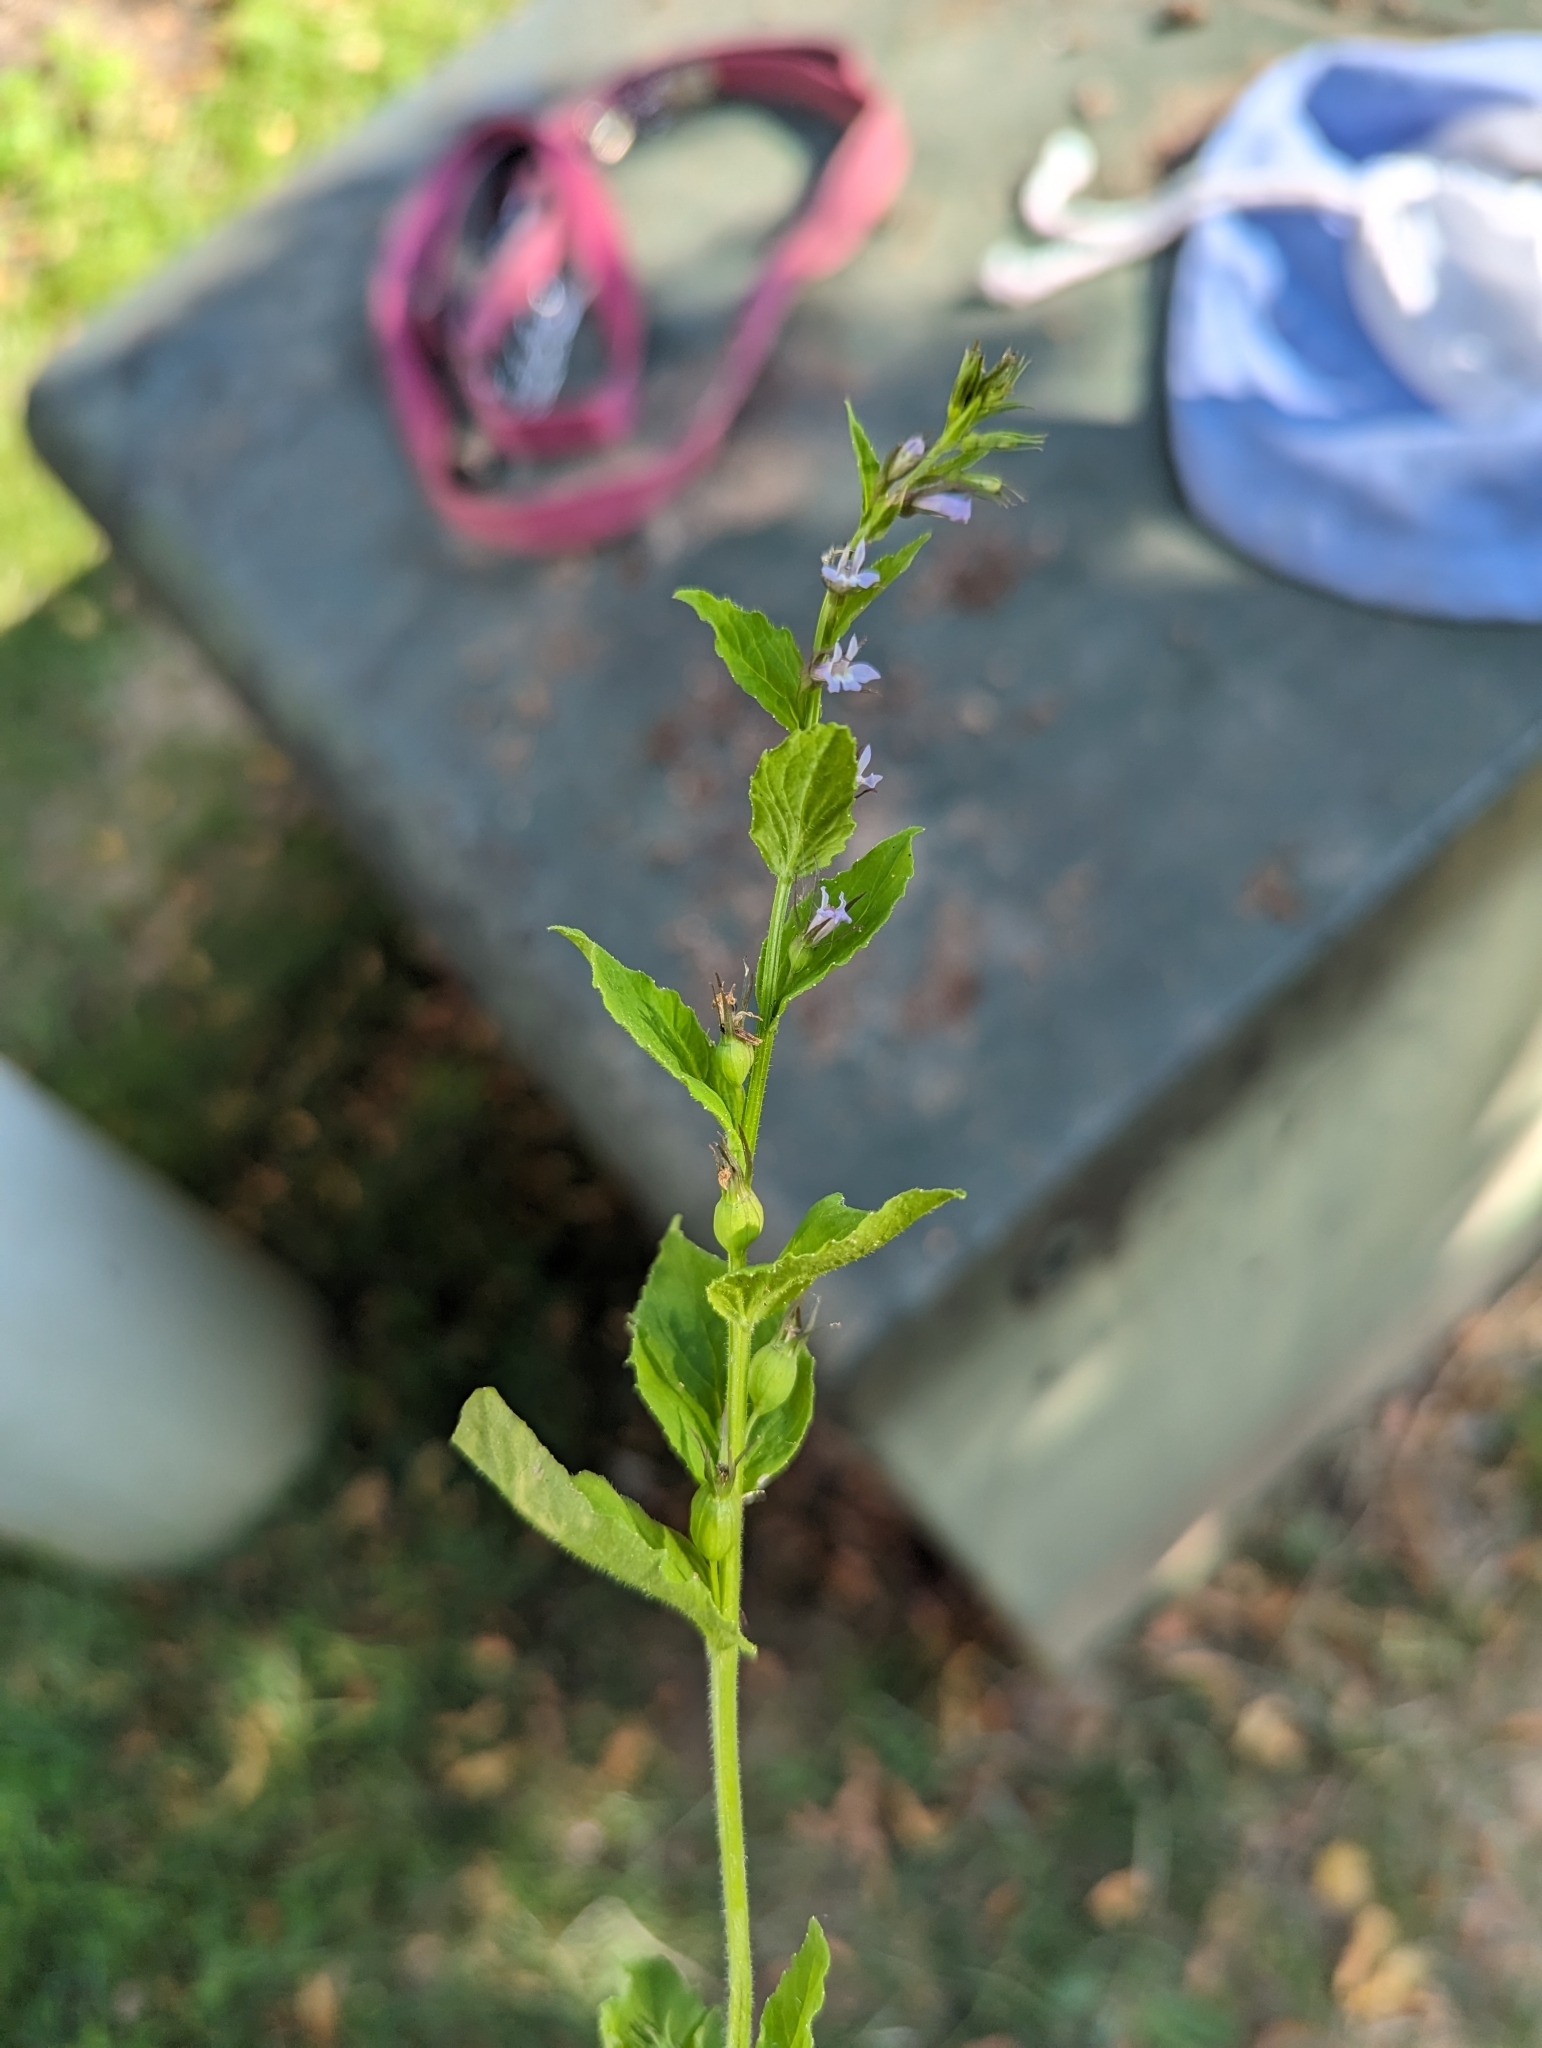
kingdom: Plantae
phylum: Tracheophyta
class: Magnoliopsida
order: Asterales
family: Campanulaceae
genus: Lobelia
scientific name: Lobelia inflata
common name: Indian tobacco
